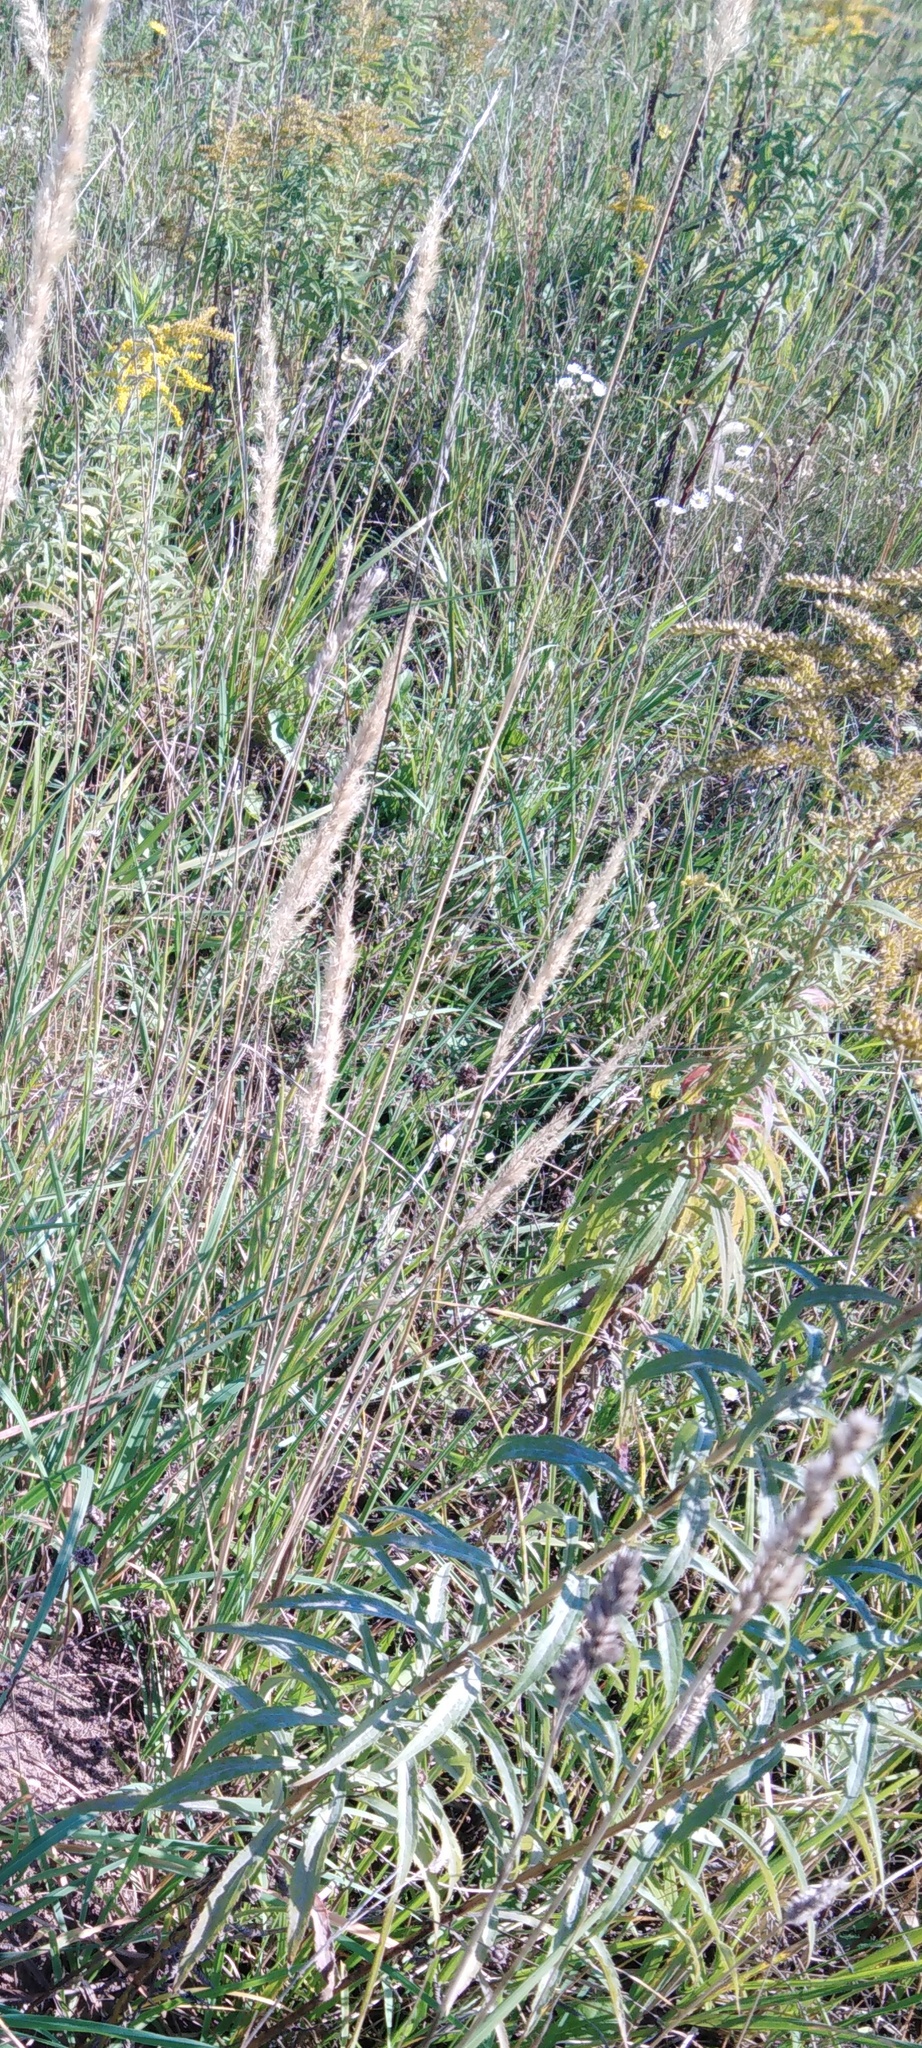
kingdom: Plantae
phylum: Tracheophyta
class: Magnoliopsida
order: Asterales
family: Asteraceae
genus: Solidago
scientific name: Solidago canadensis
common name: Canada goldenrod
